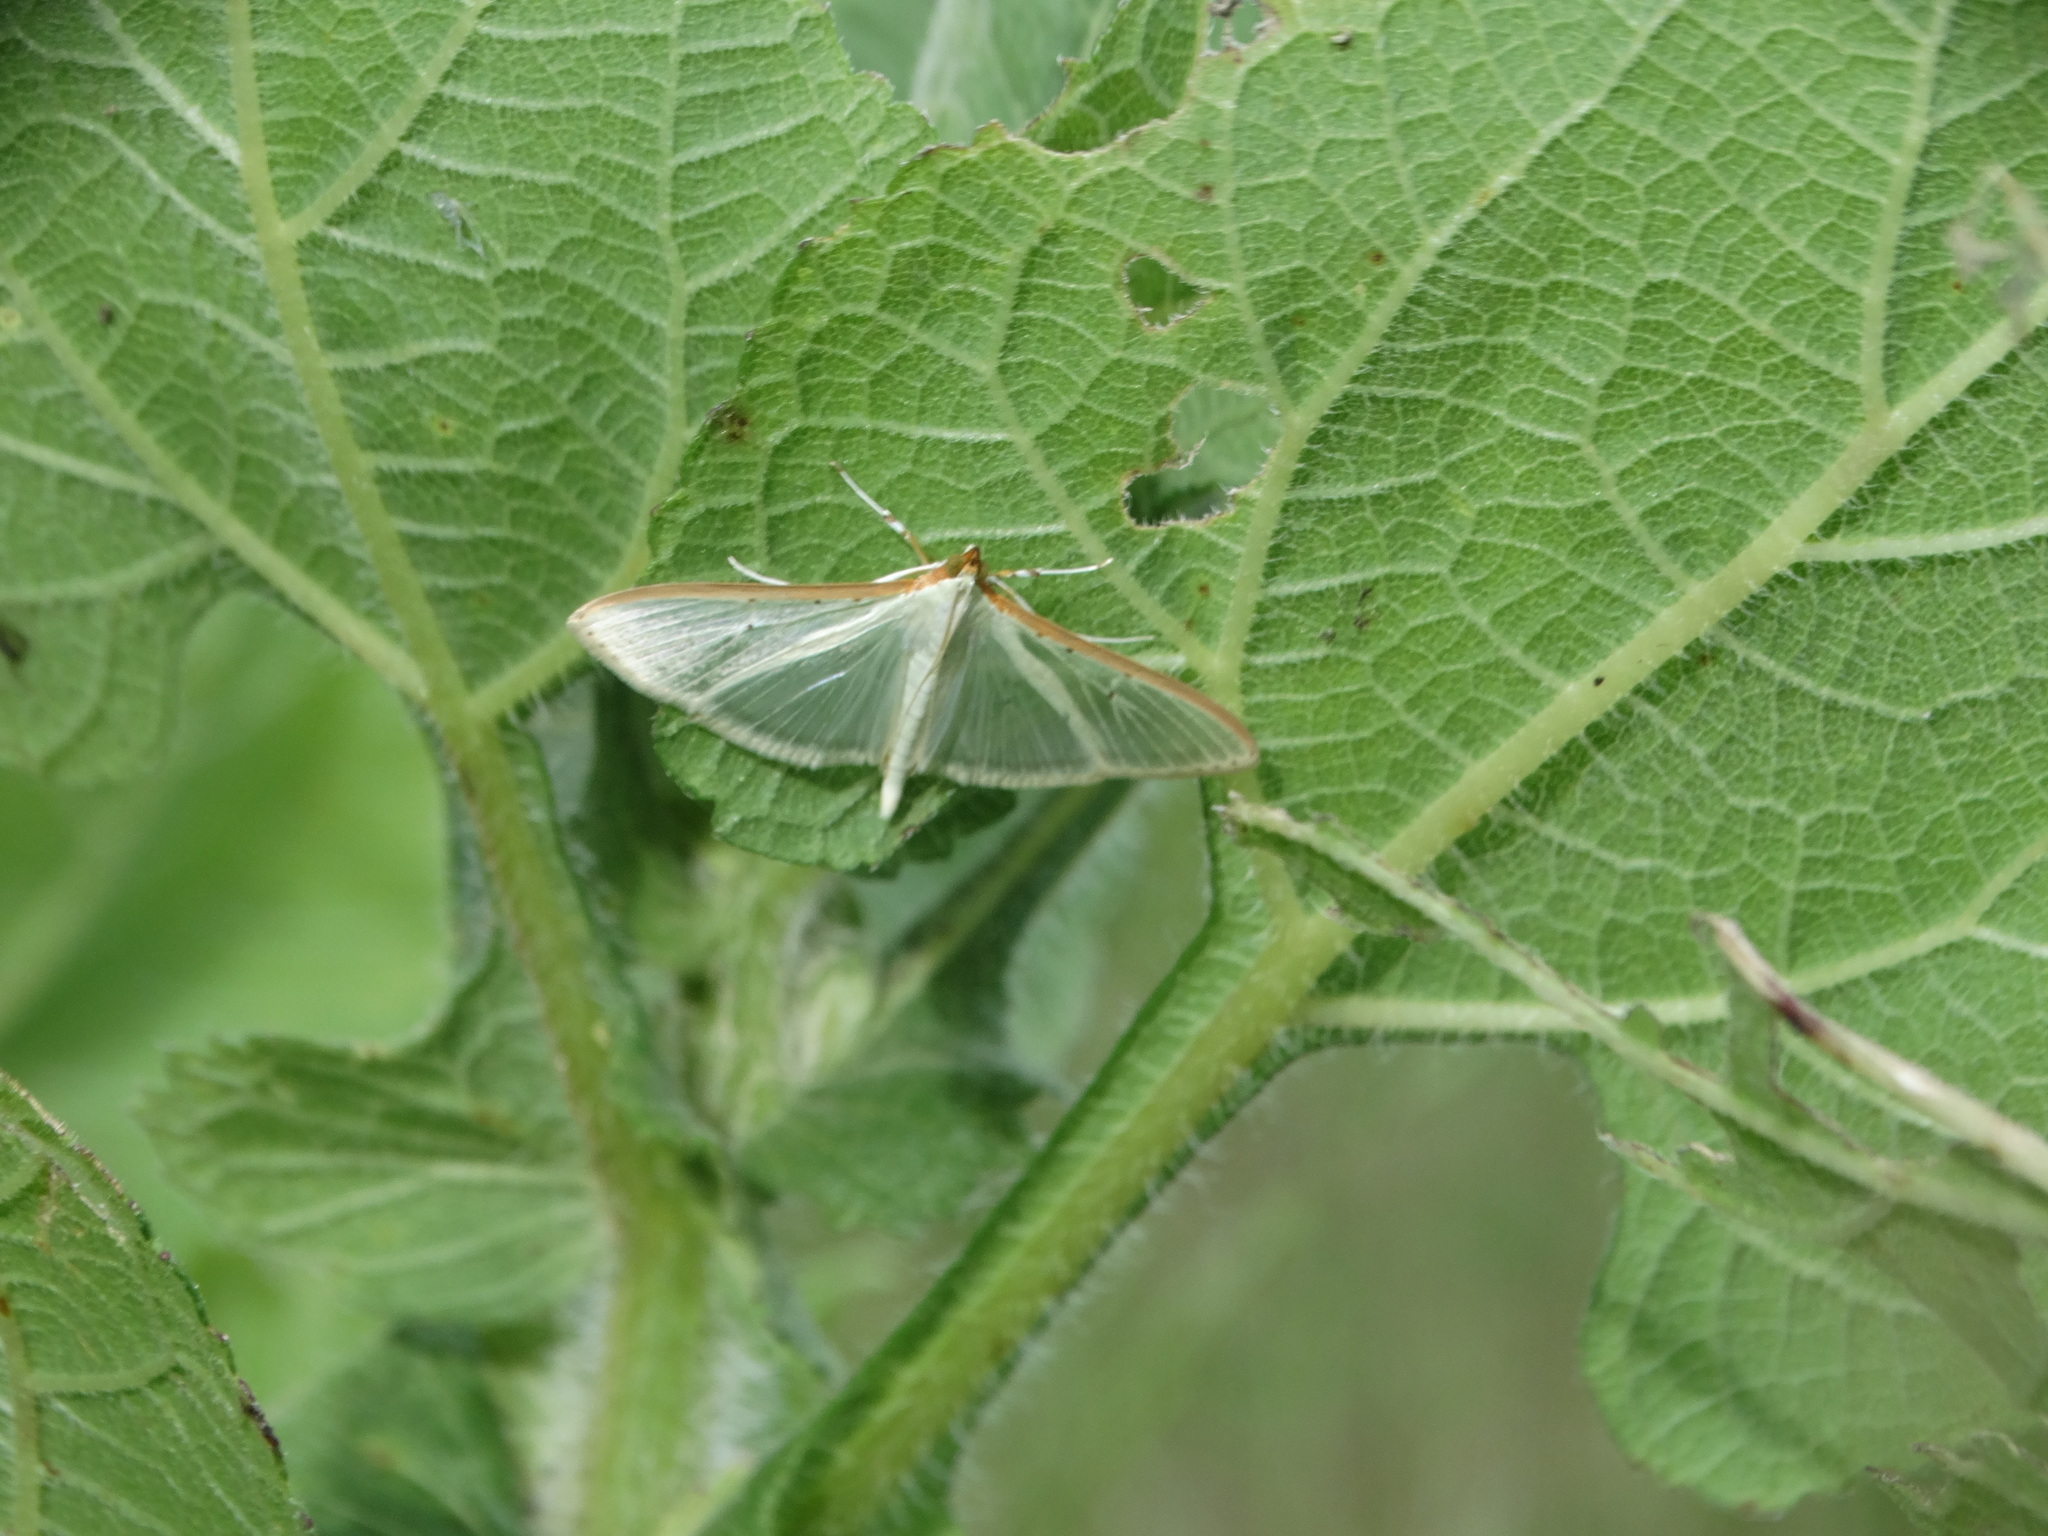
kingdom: Animalia
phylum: Arthropoda
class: Insecta
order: Lepidoptera
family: Crambidae
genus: Palpita
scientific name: Palpita quadristigmalis
